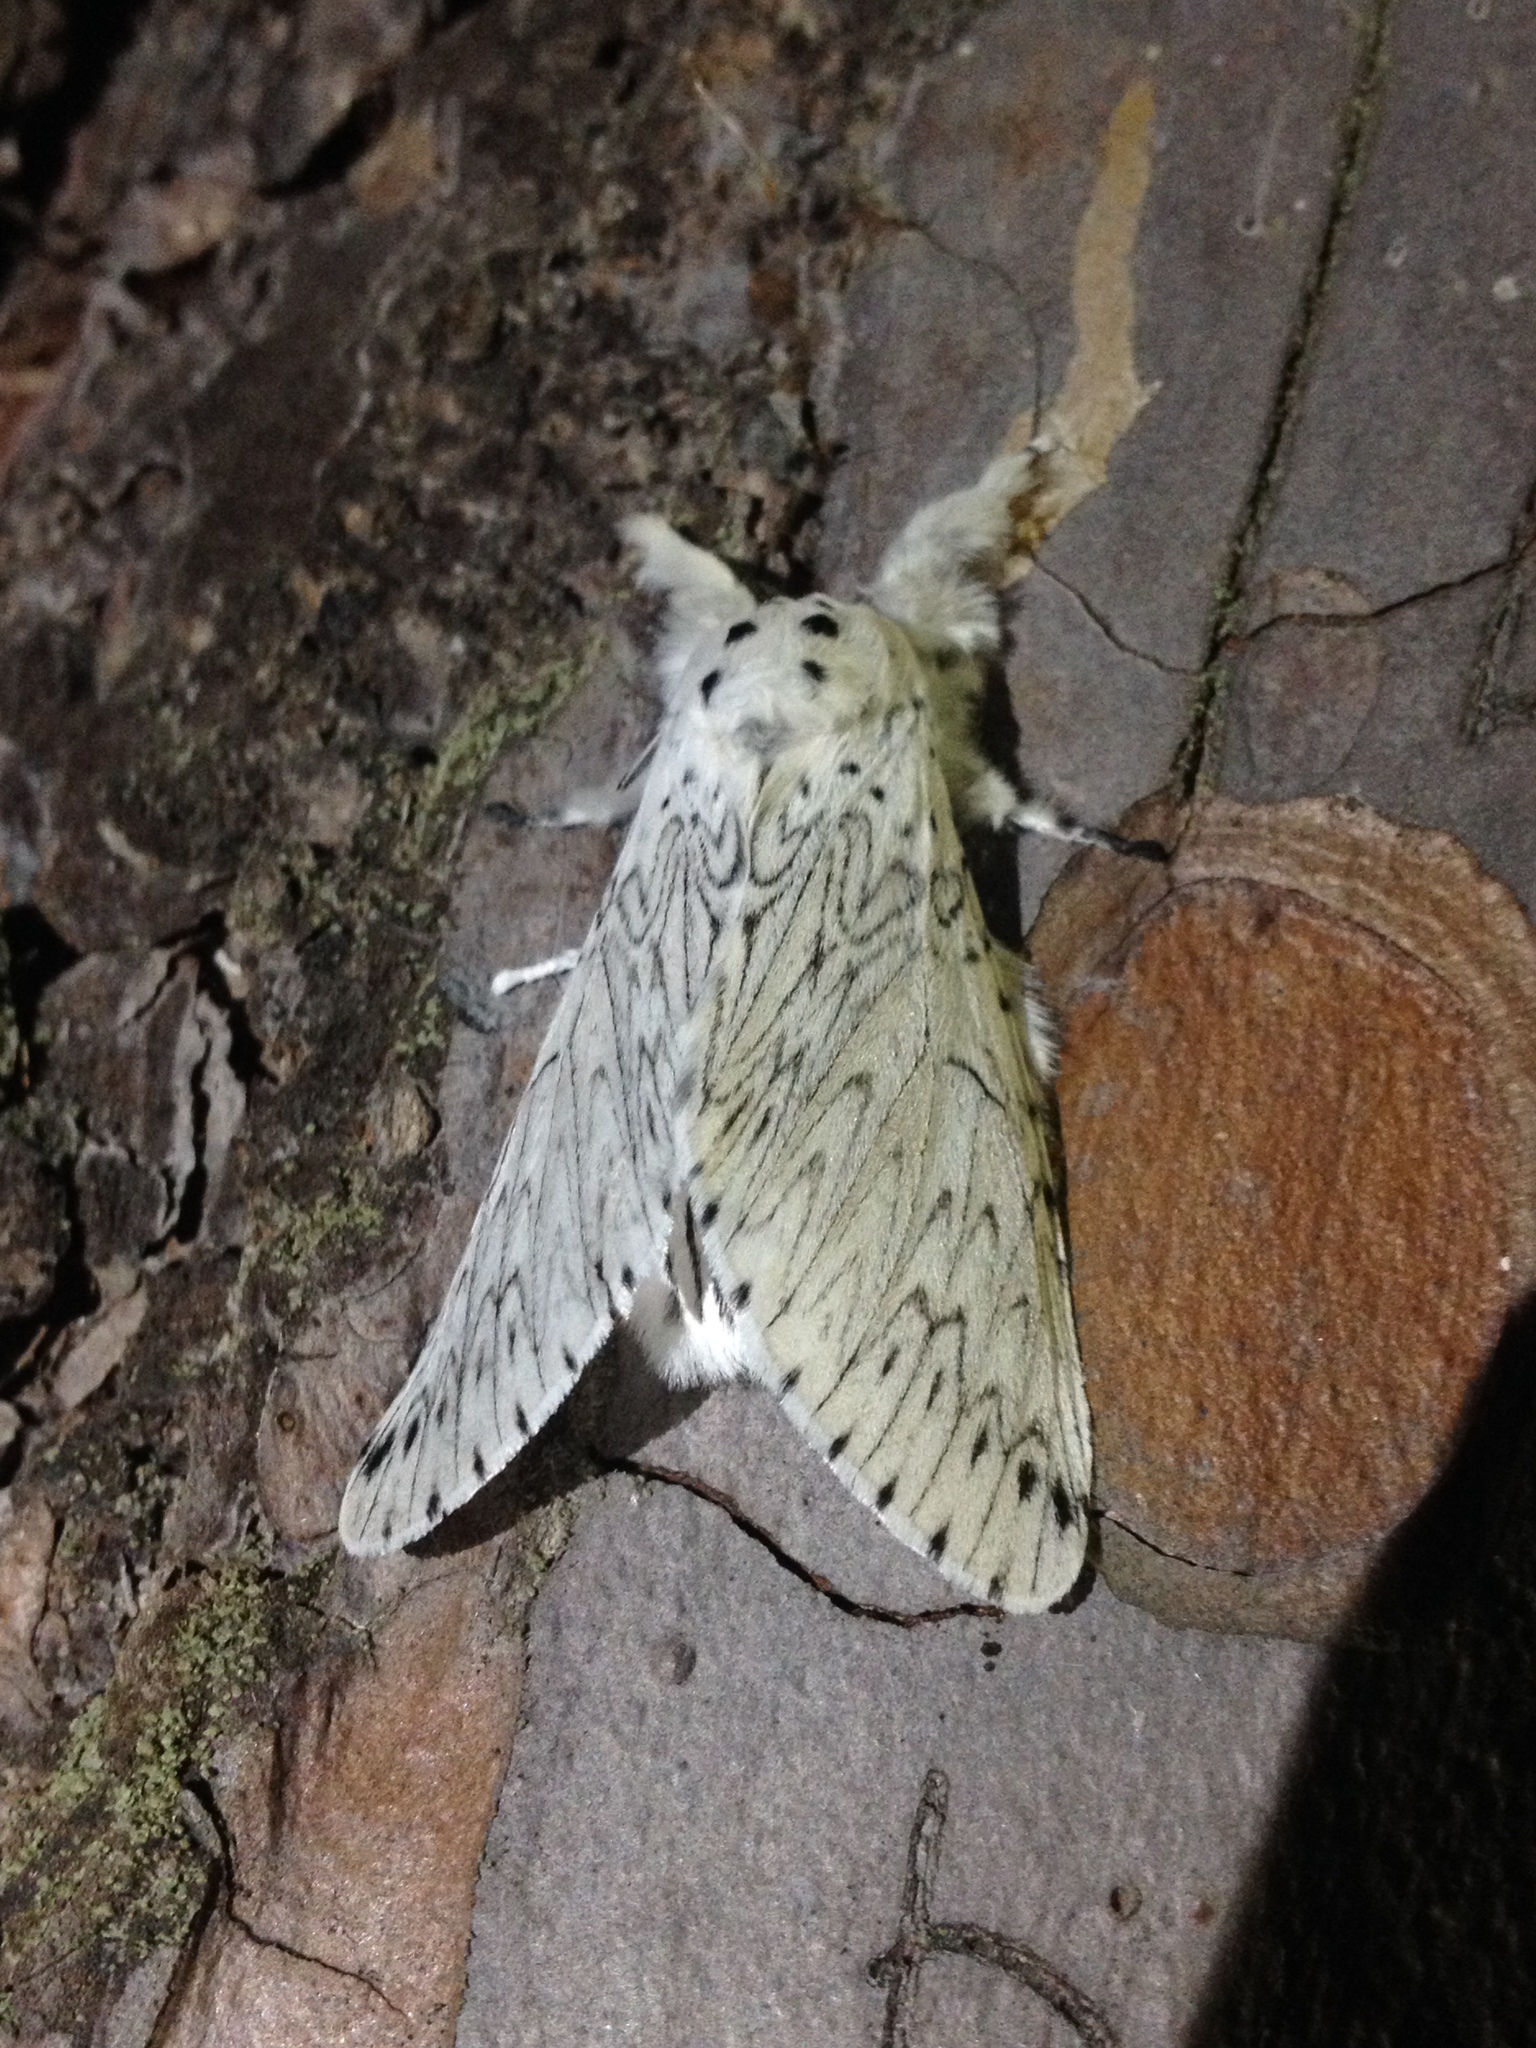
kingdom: Animalia
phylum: Arthropoda
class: Insecta
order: Lepidoptera
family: Notodontidae
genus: Cerura
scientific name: Cerura erminea
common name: Lesser puss moth
